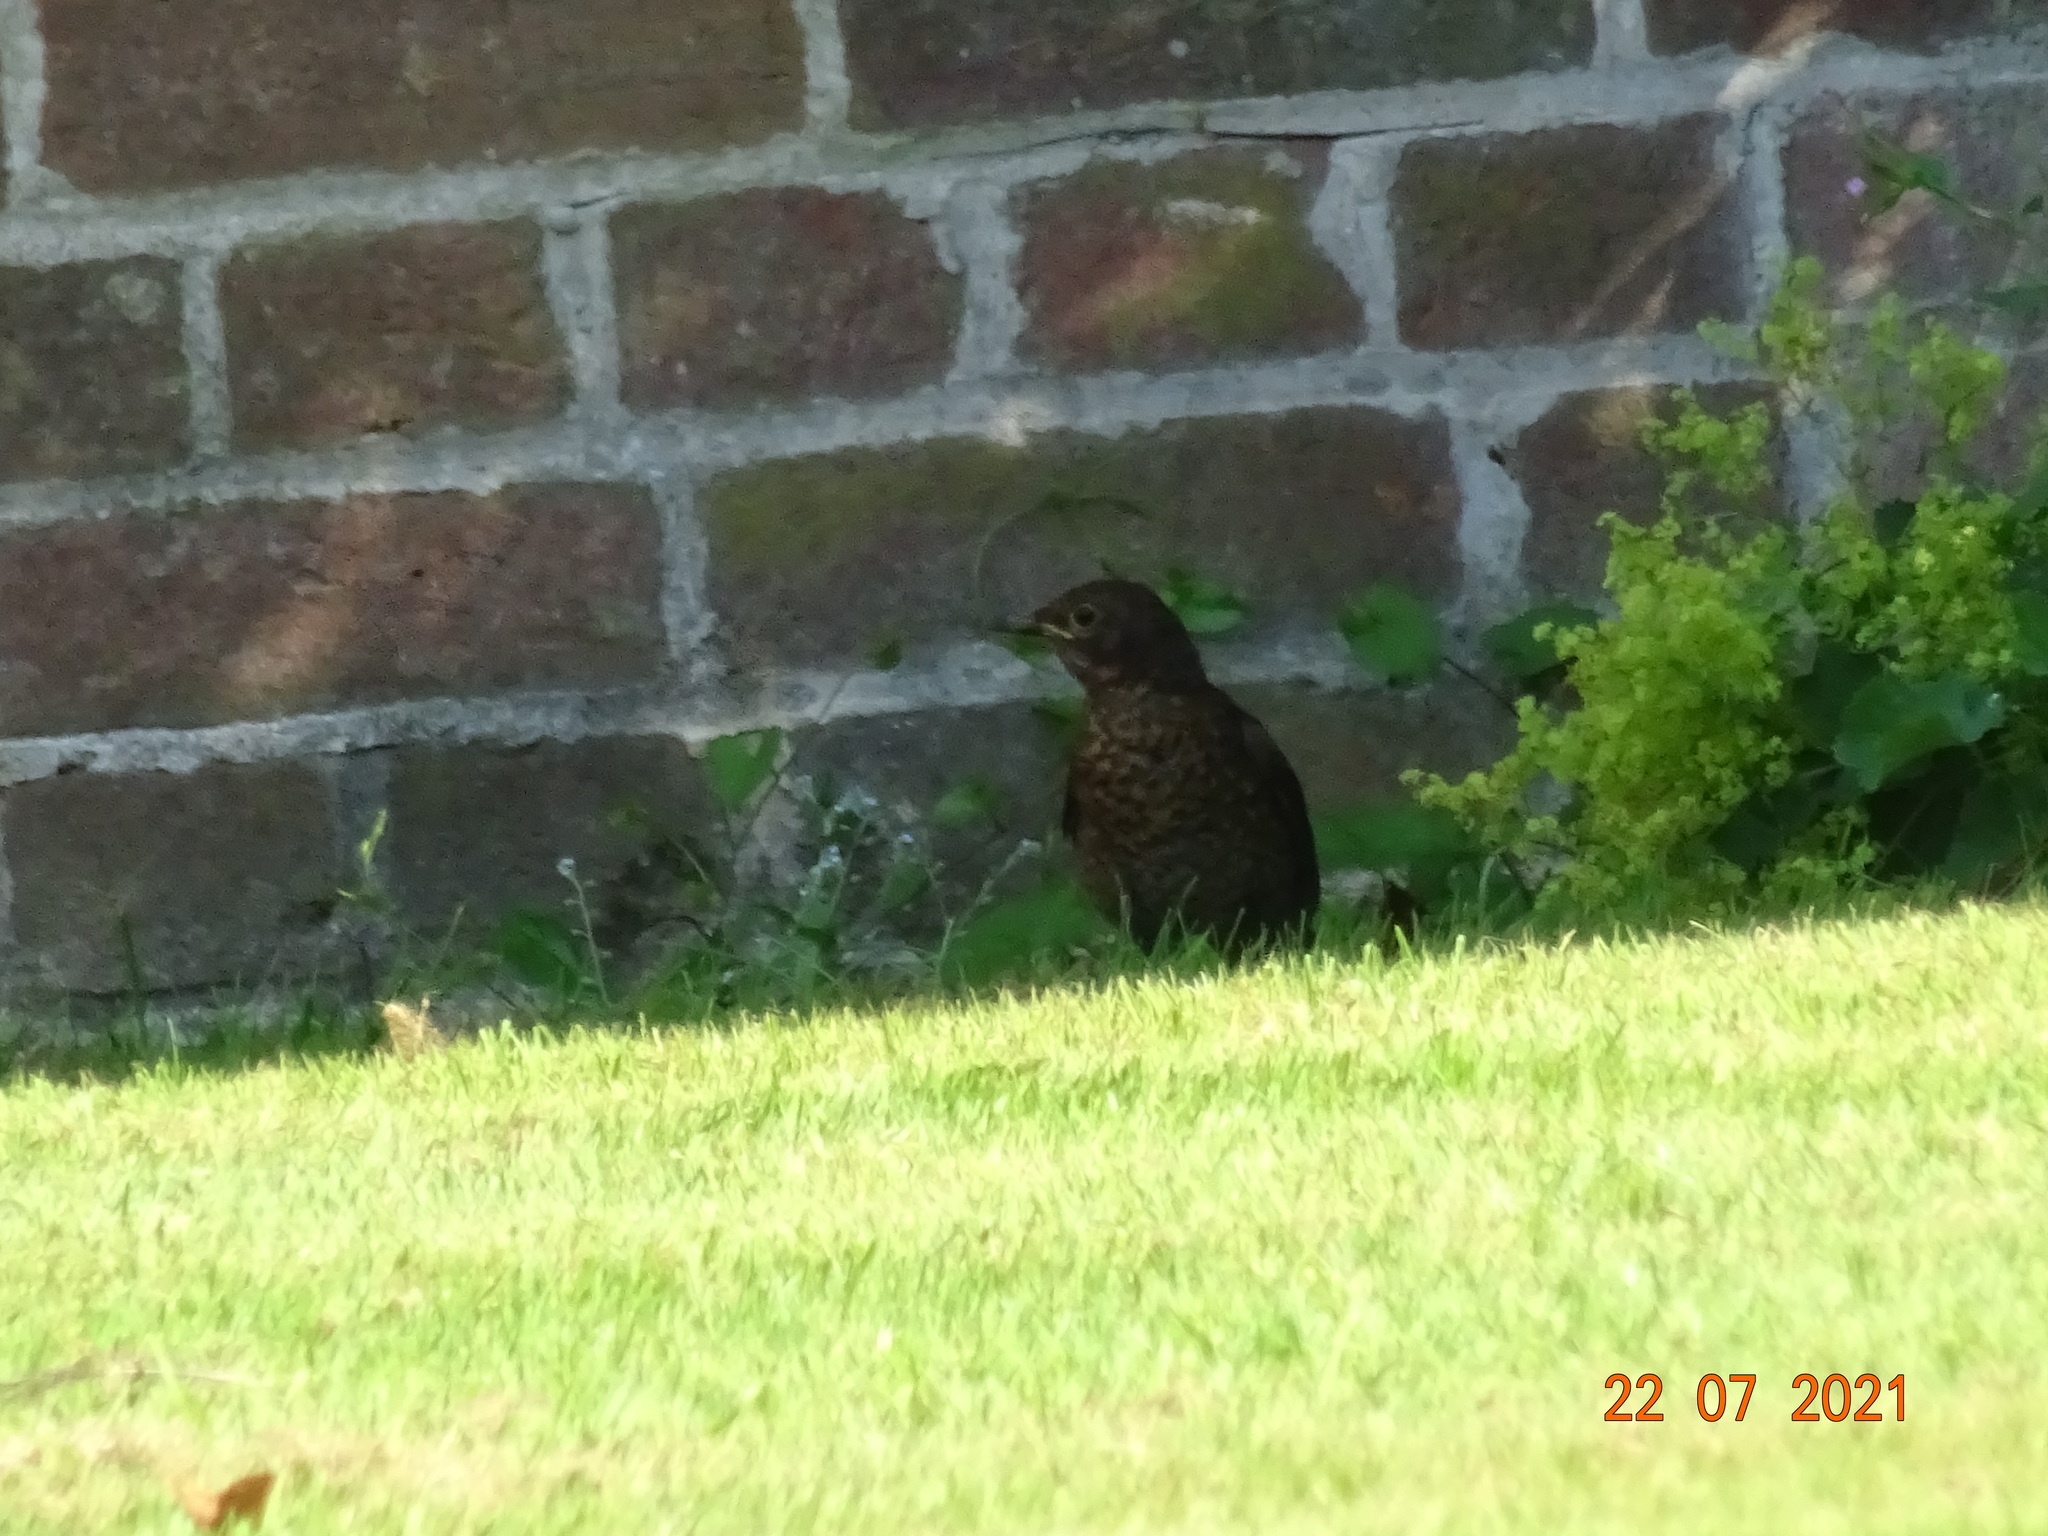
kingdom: Animalia
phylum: Chordata
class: Aves
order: Passeriformes
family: Turdidae
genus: Turdus
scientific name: Turdus merula
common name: Common blackbird
